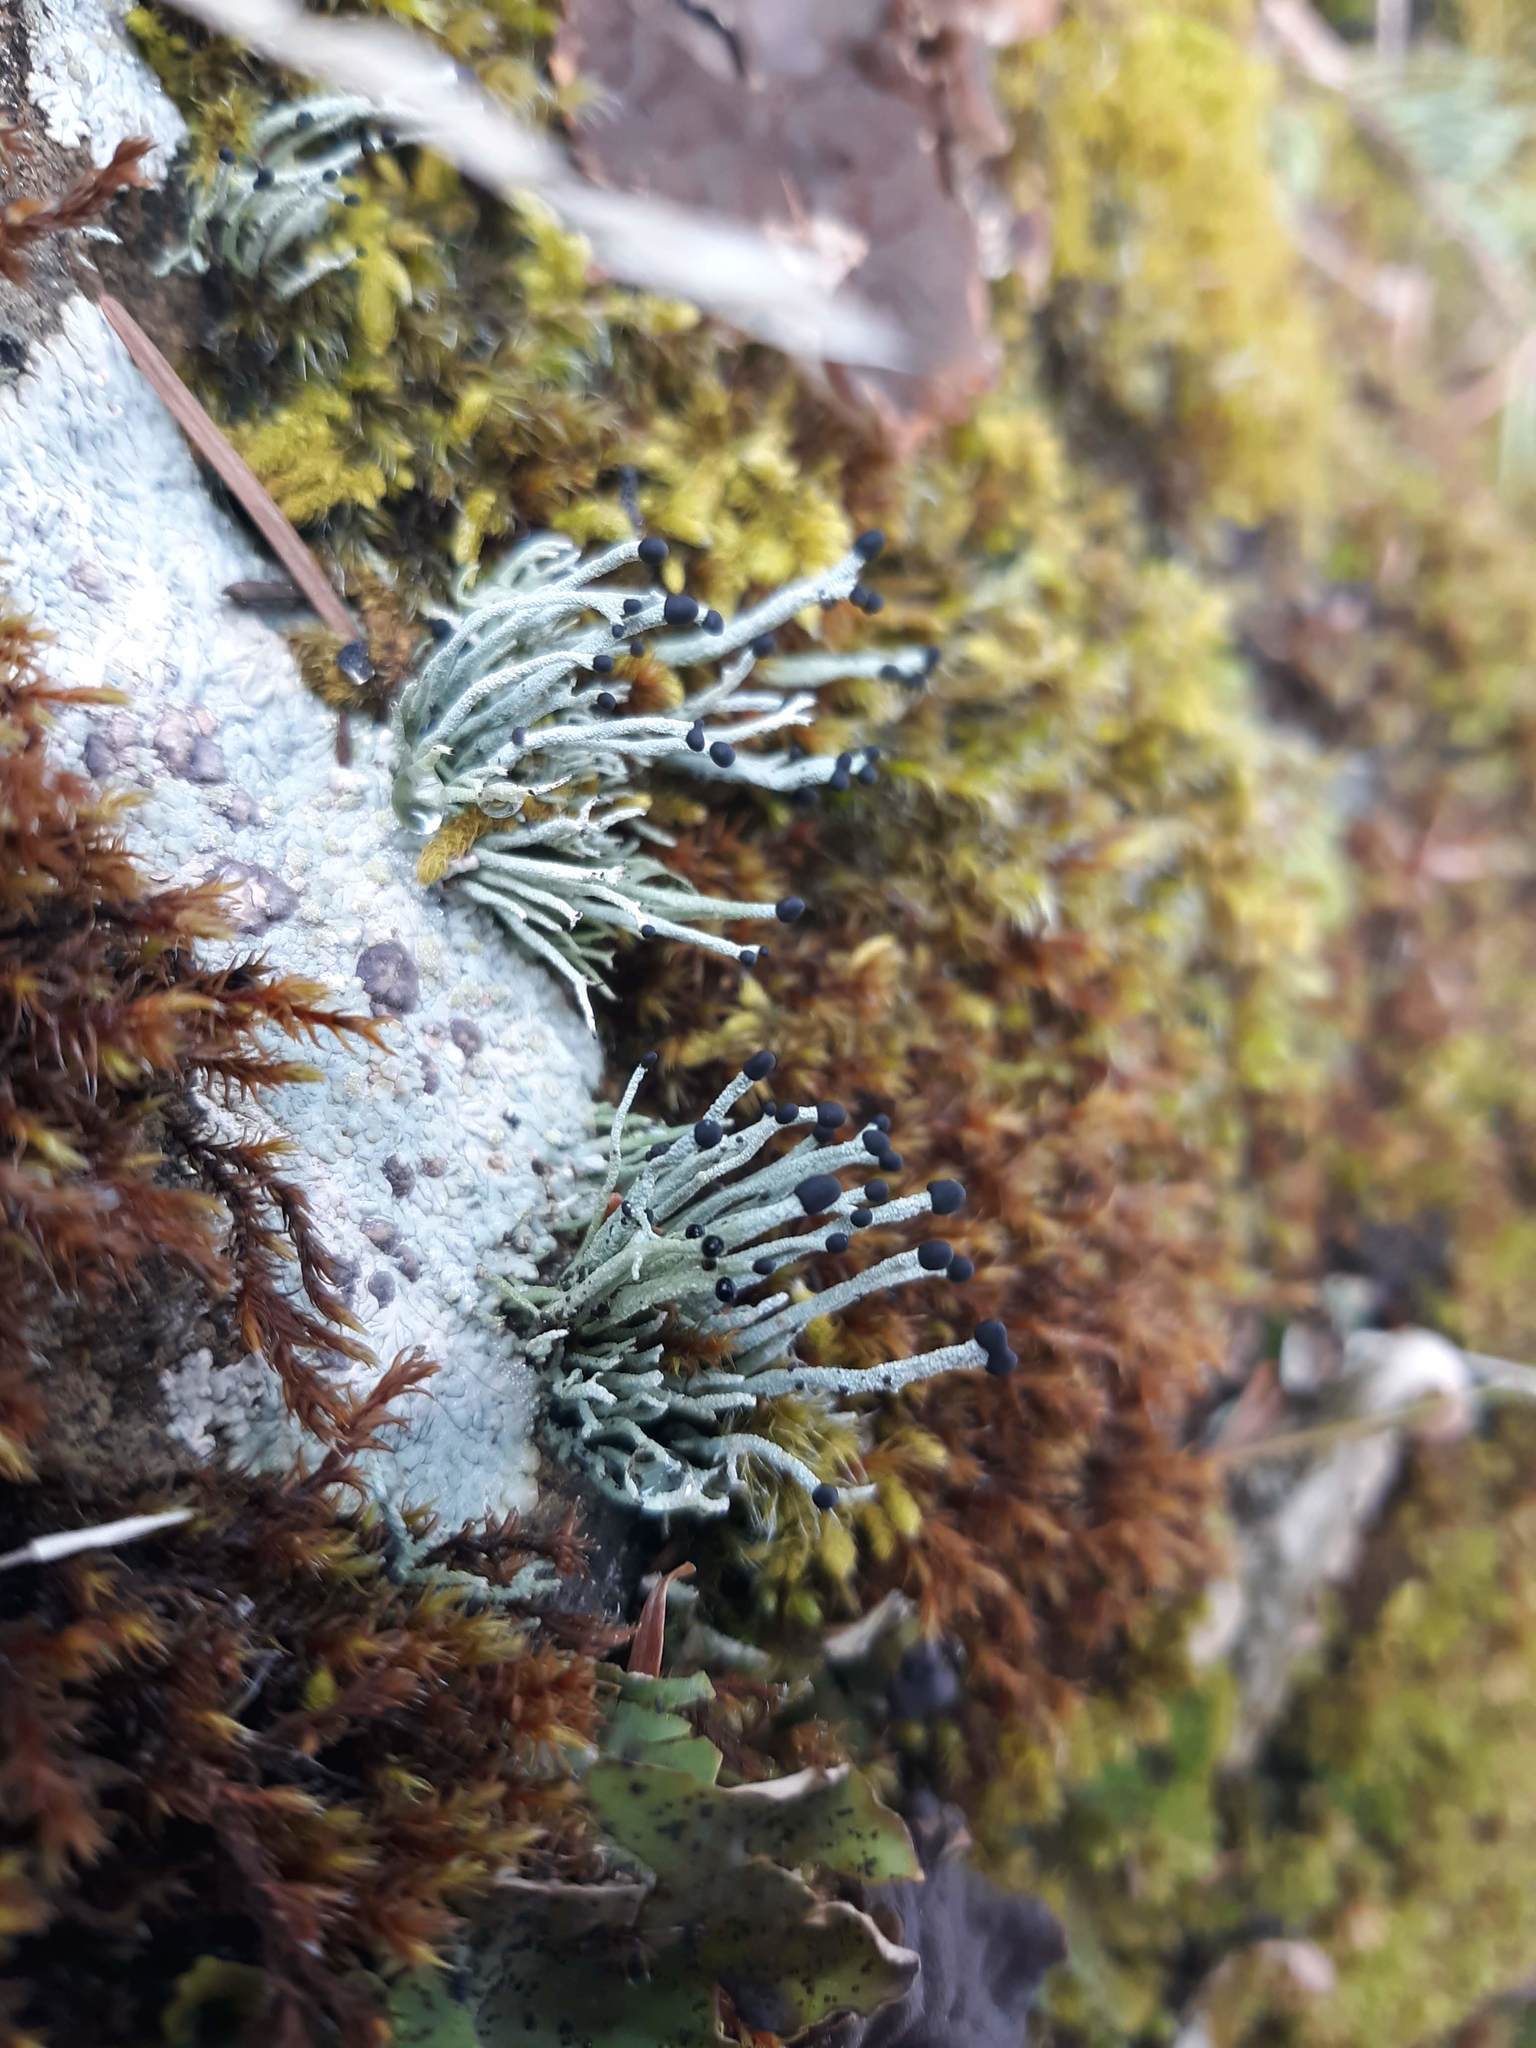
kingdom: Fungi
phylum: Ascomycota
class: Lecanoromycetes
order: Lecanorales
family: Cladoniaceae
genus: Pilophorus
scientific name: Pilophorus acicularis
